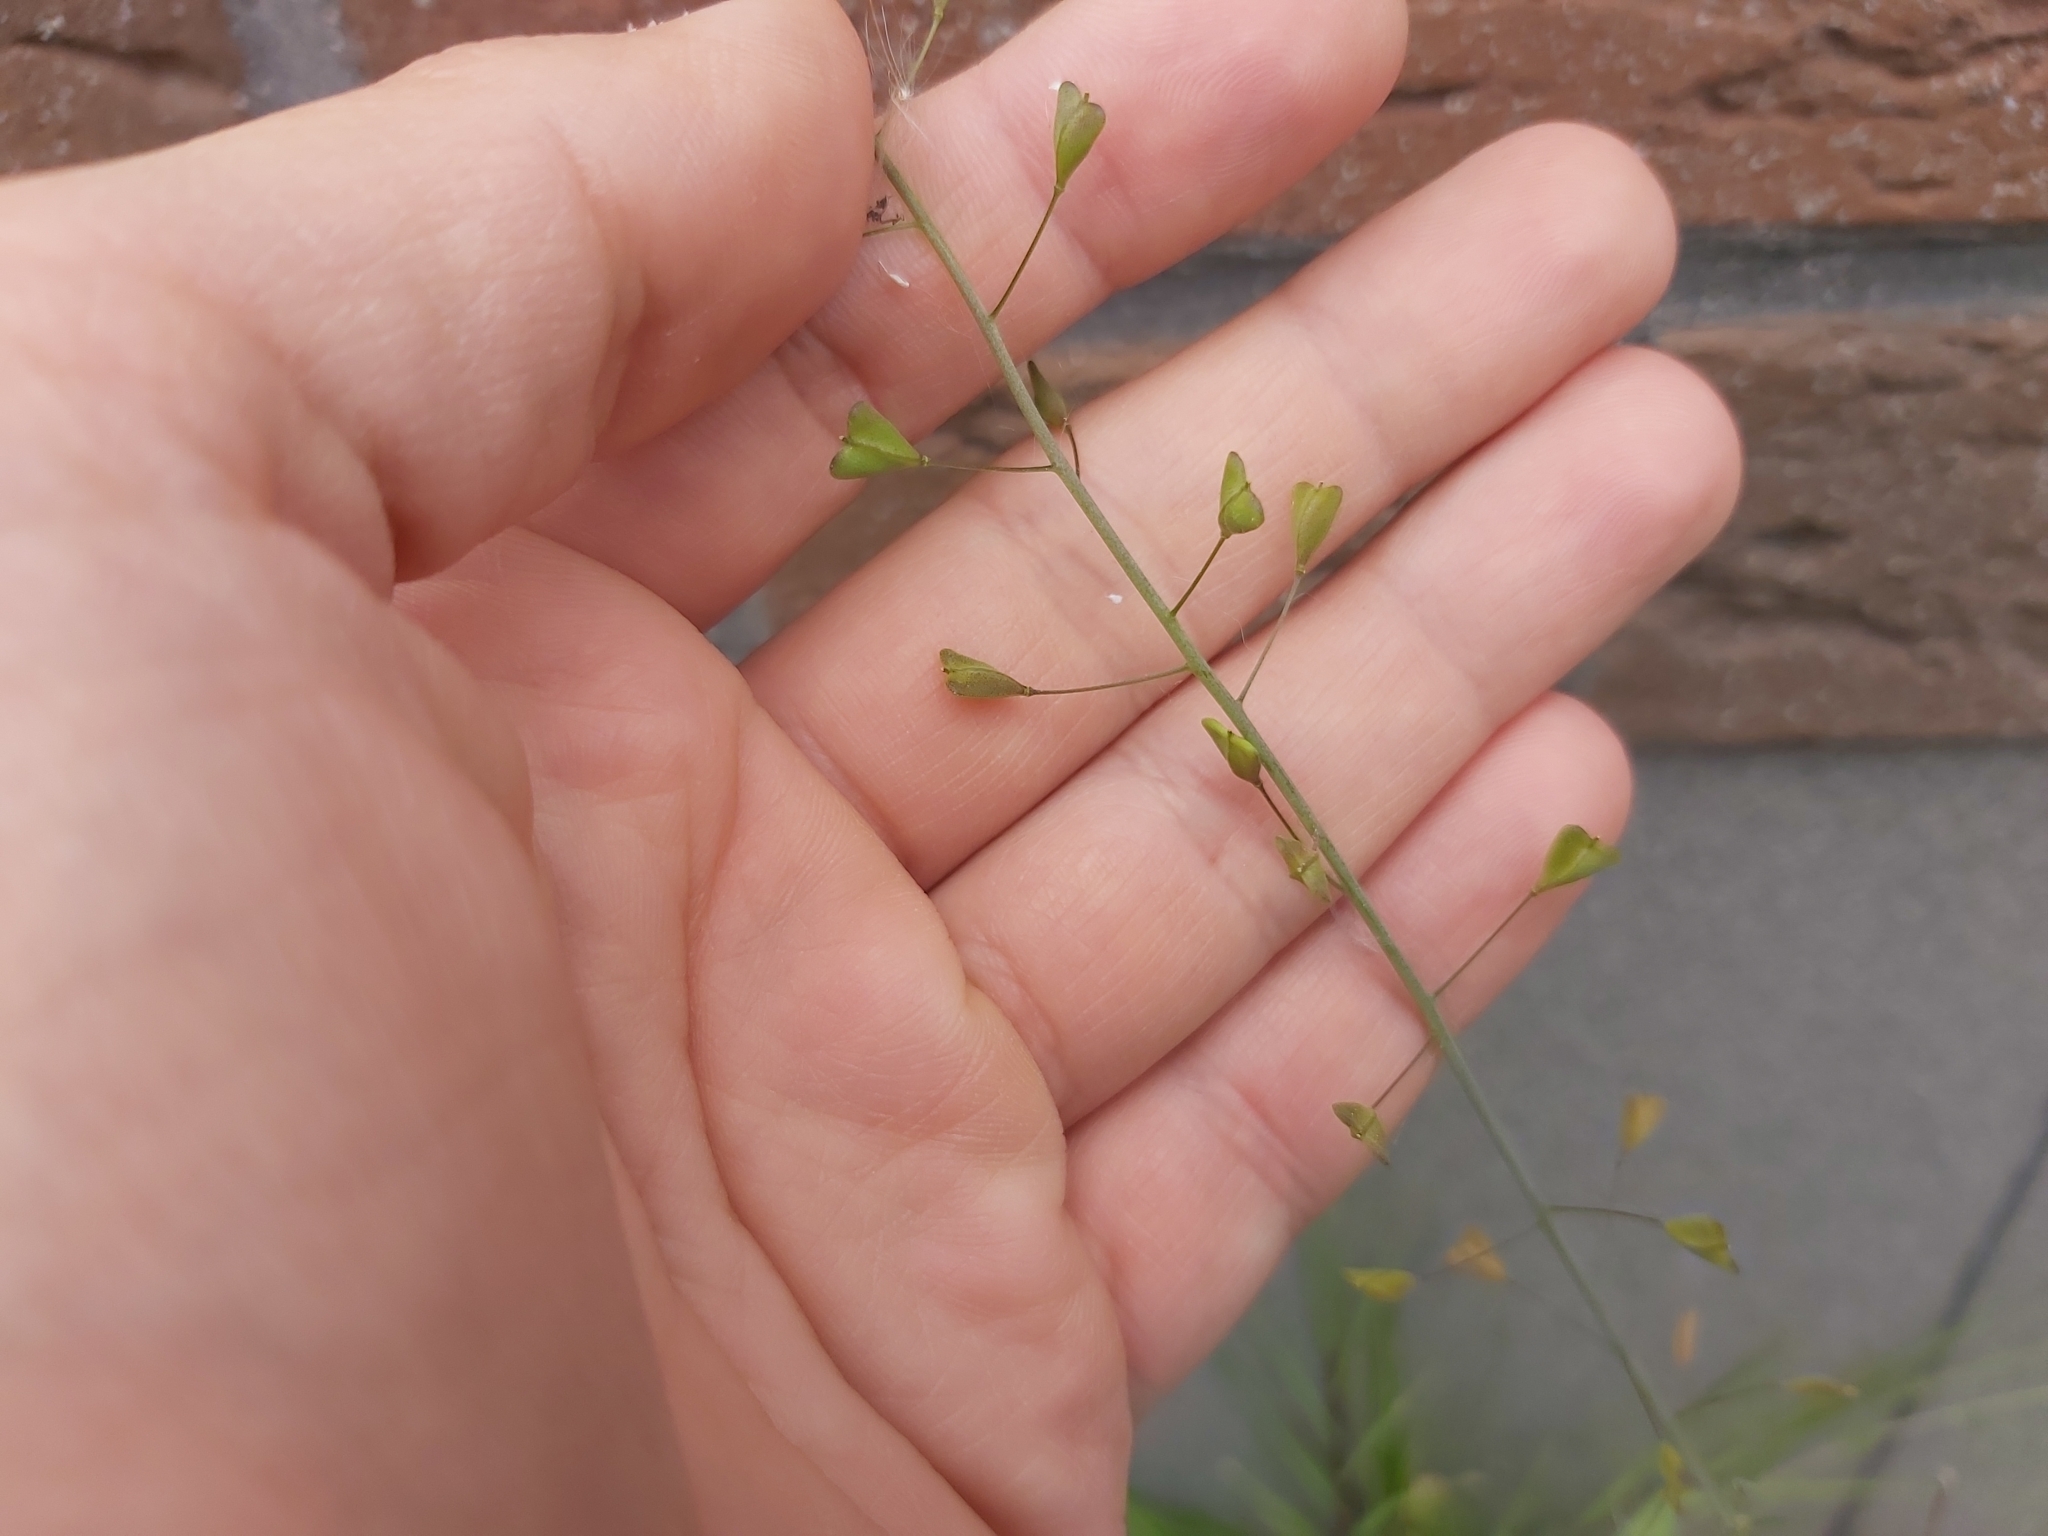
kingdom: Plantae
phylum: Tracheophyta
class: Magnoliopsida
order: Brassicales
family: Brassicaceae
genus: Capsella
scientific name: Capsella bursa-pastoris
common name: Shepherd's purse
